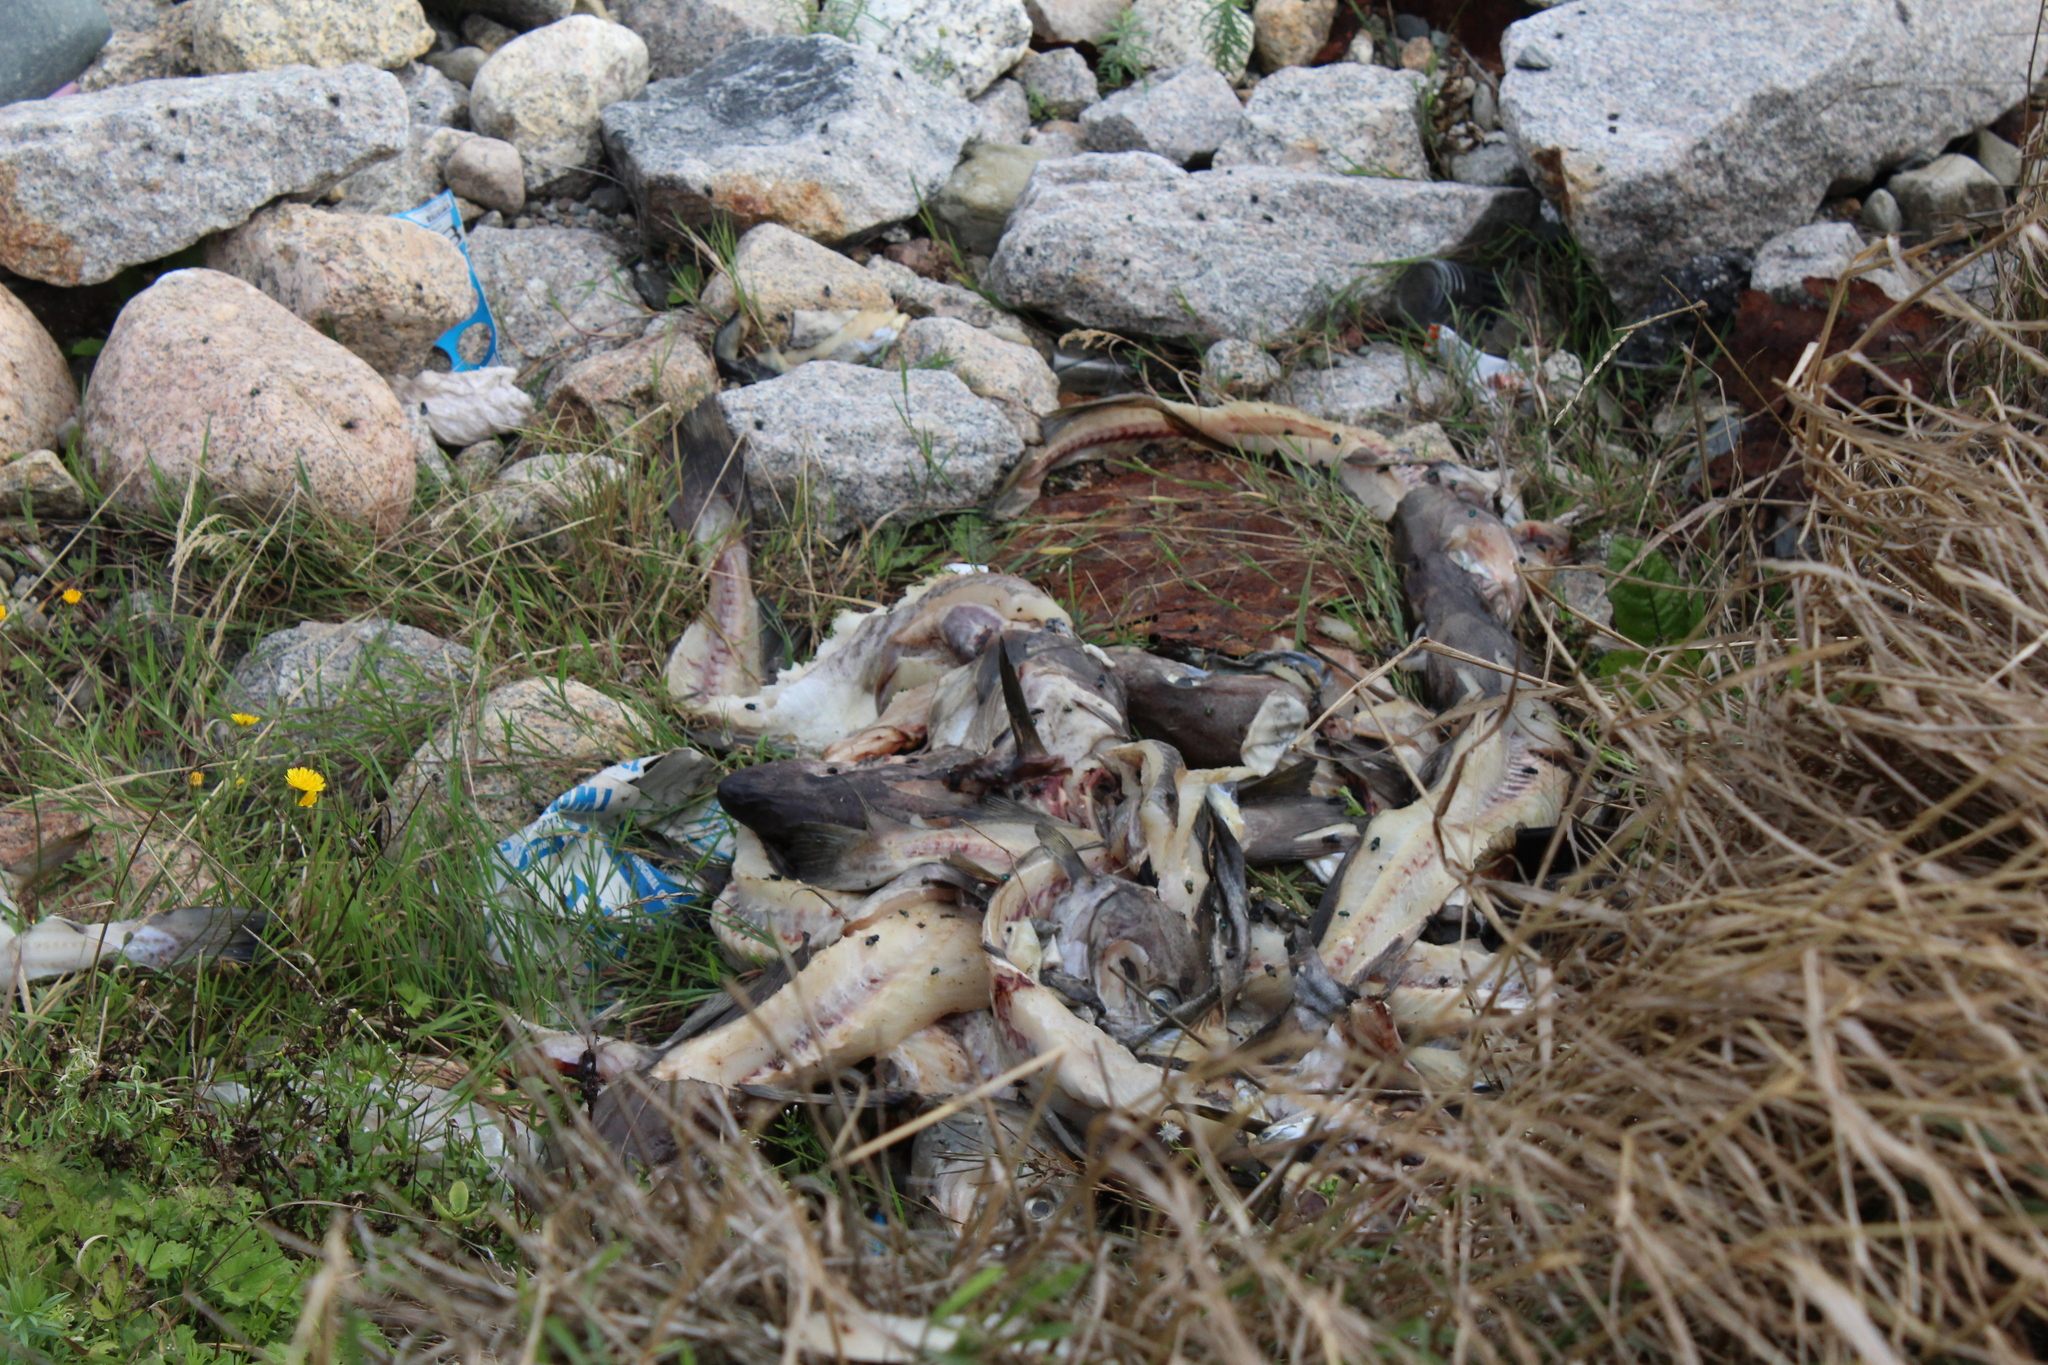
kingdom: Animalia
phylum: Chordata
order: Gadiformes
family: Gadidae
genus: Gadus
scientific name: Gadus morhua
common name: Atlantic cod
